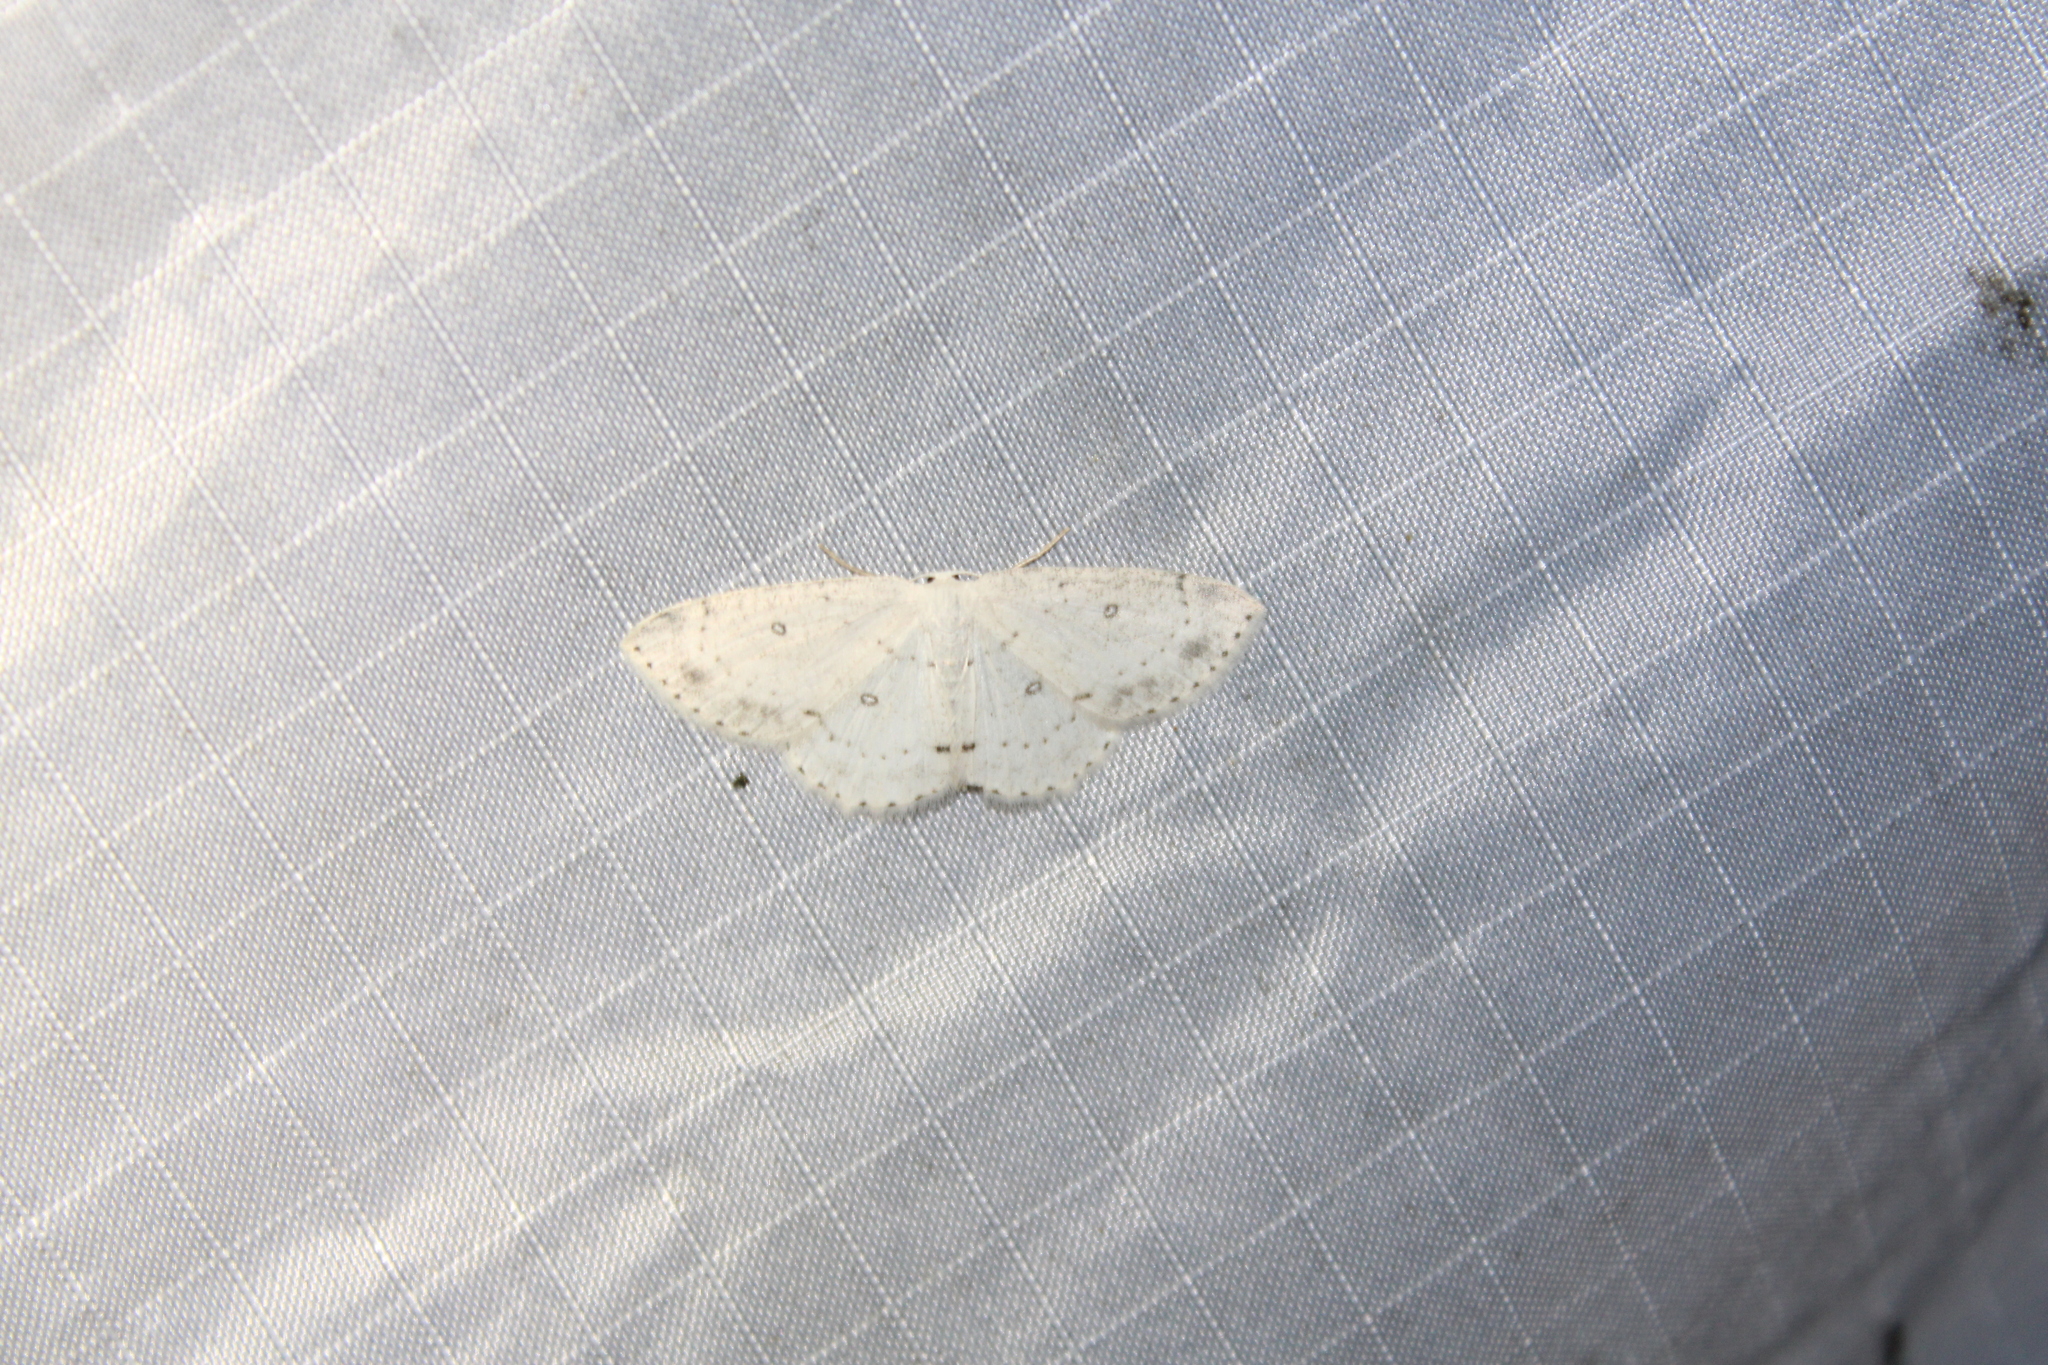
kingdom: Animalia
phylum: Arthropoda
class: Insecta
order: Lepidoptera
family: Geometridae
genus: Cyclophora
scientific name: Cyclophora pendulinaria
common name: Sweet fern geometer
